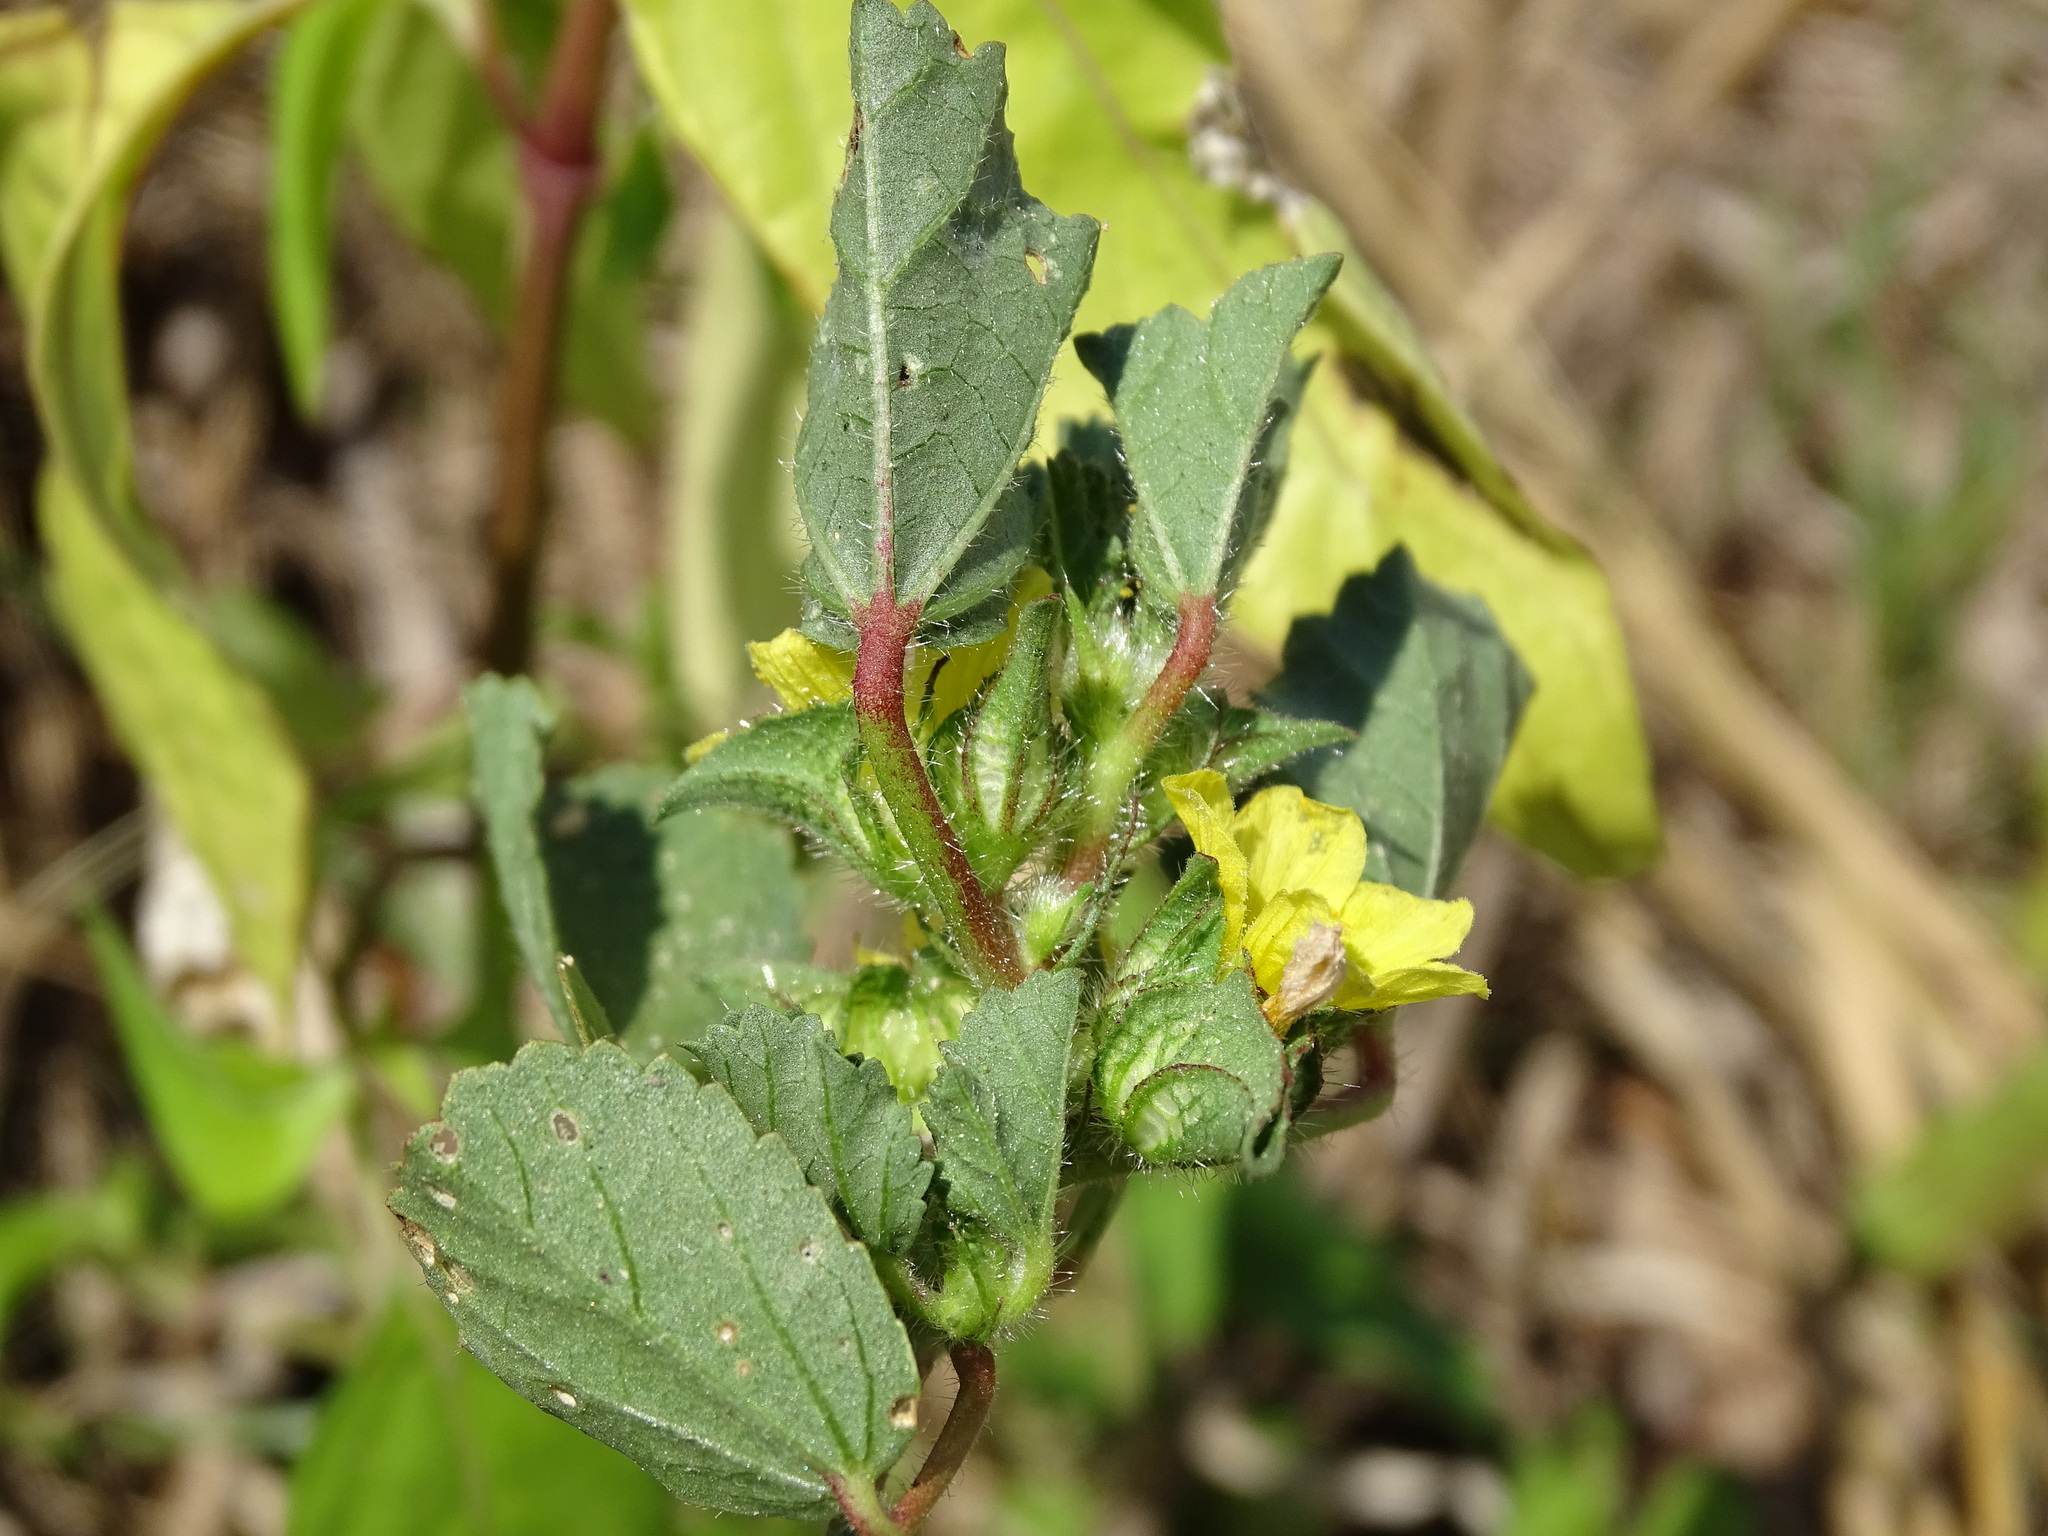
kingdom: Plantae
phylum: Tracheophyta
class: Magnoliopsida
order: Malvales
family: Malvaceae
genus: Malachra
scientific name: Malachra capitata
